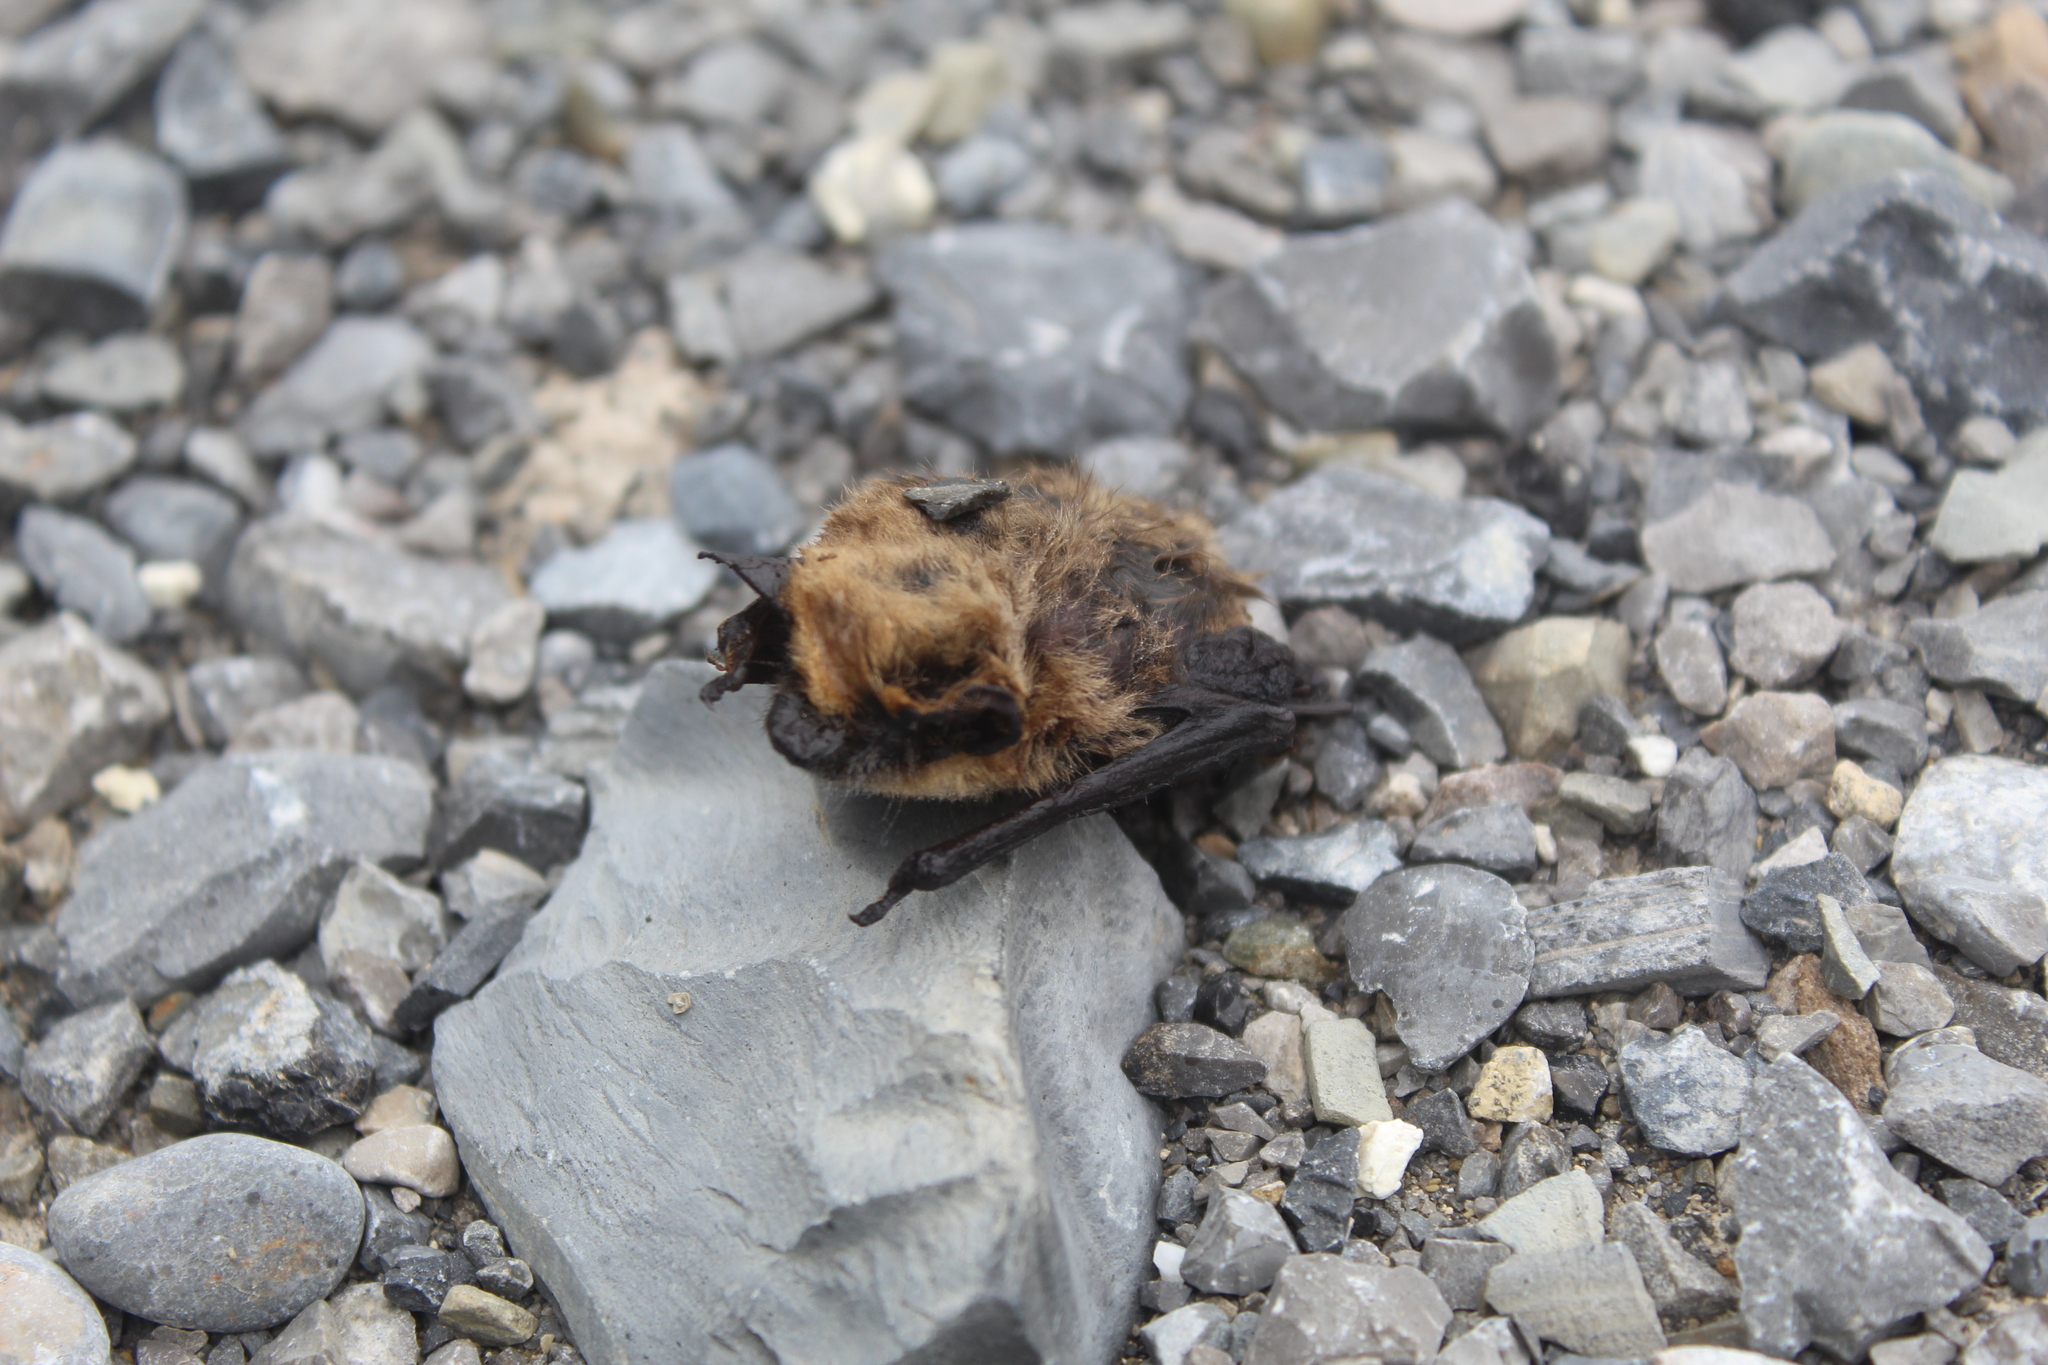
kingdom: Animalia
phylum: Chordata
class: Mammalia
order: Chiroptera
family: Vespertilionidae
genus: Parastrellus
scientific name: Parastrellus hesperus
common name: Canyon bat
